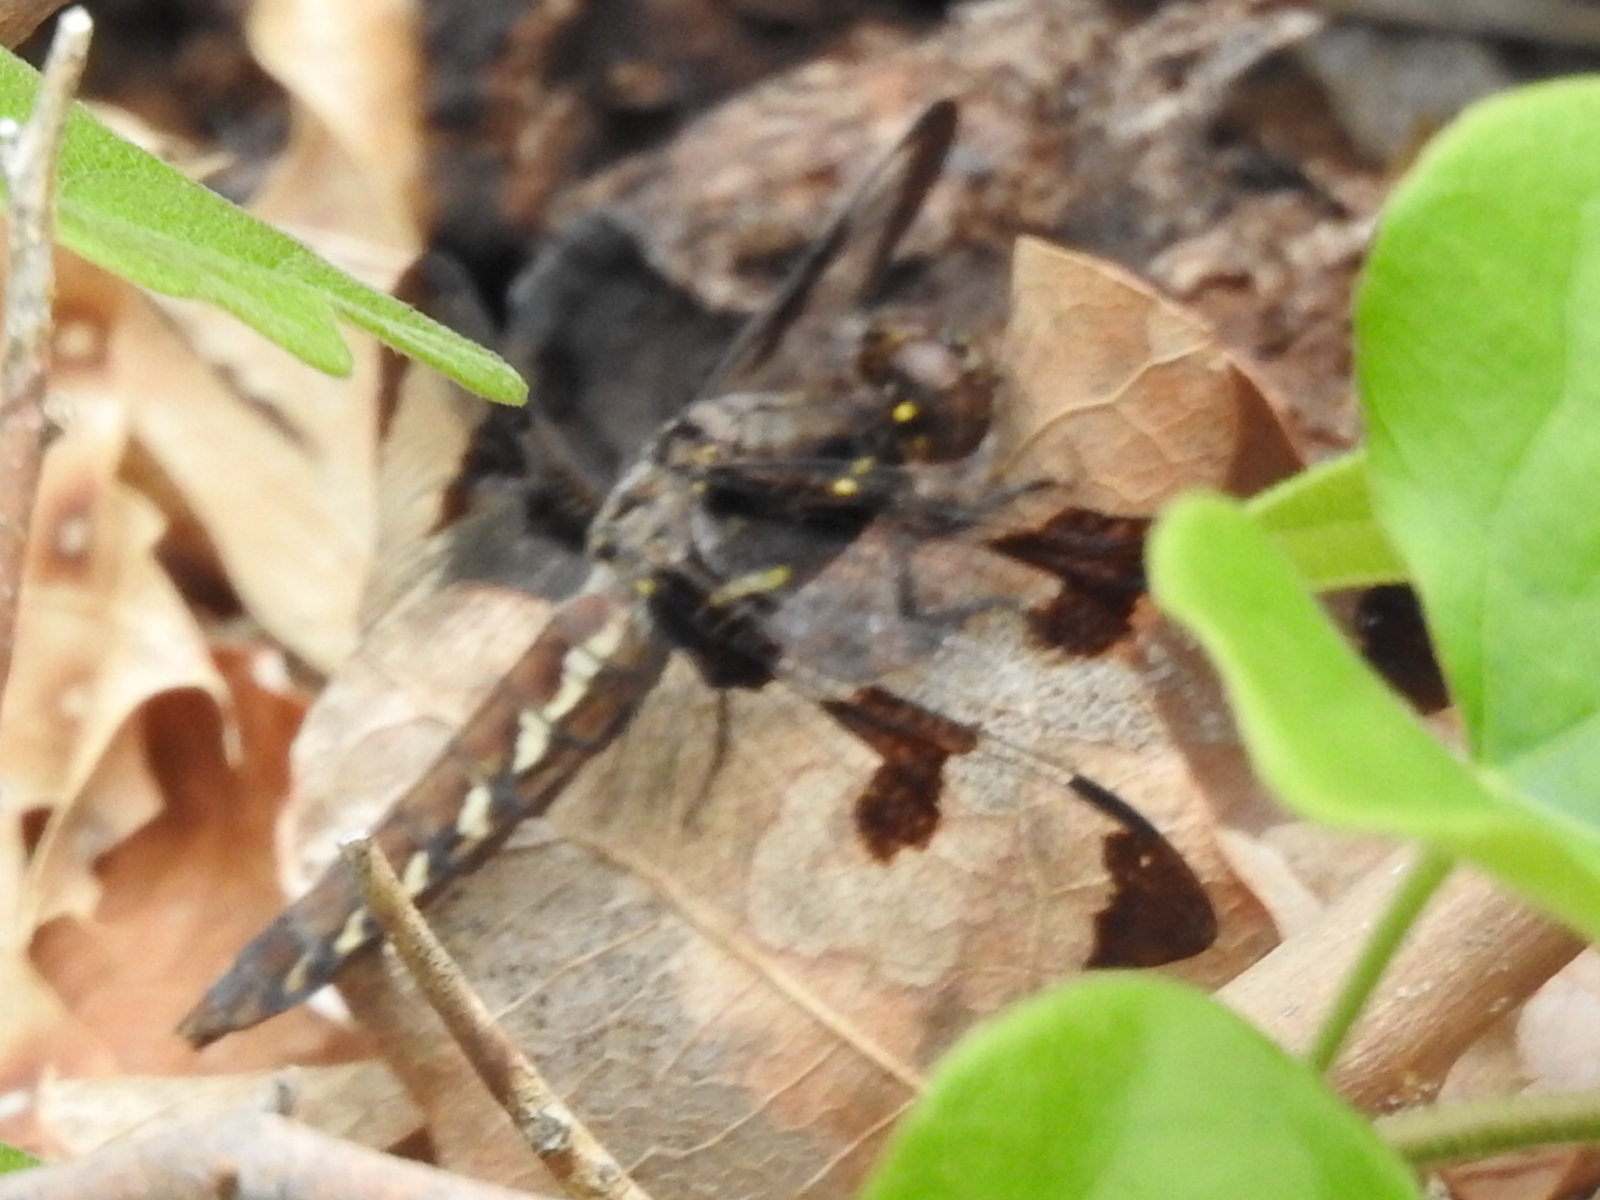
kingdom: Animalia
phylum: Arthropoda
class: Insecta
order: Odonata
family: Libellulidae
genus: Plathemis
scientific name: Plathemis lydia
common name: Common whitetail
